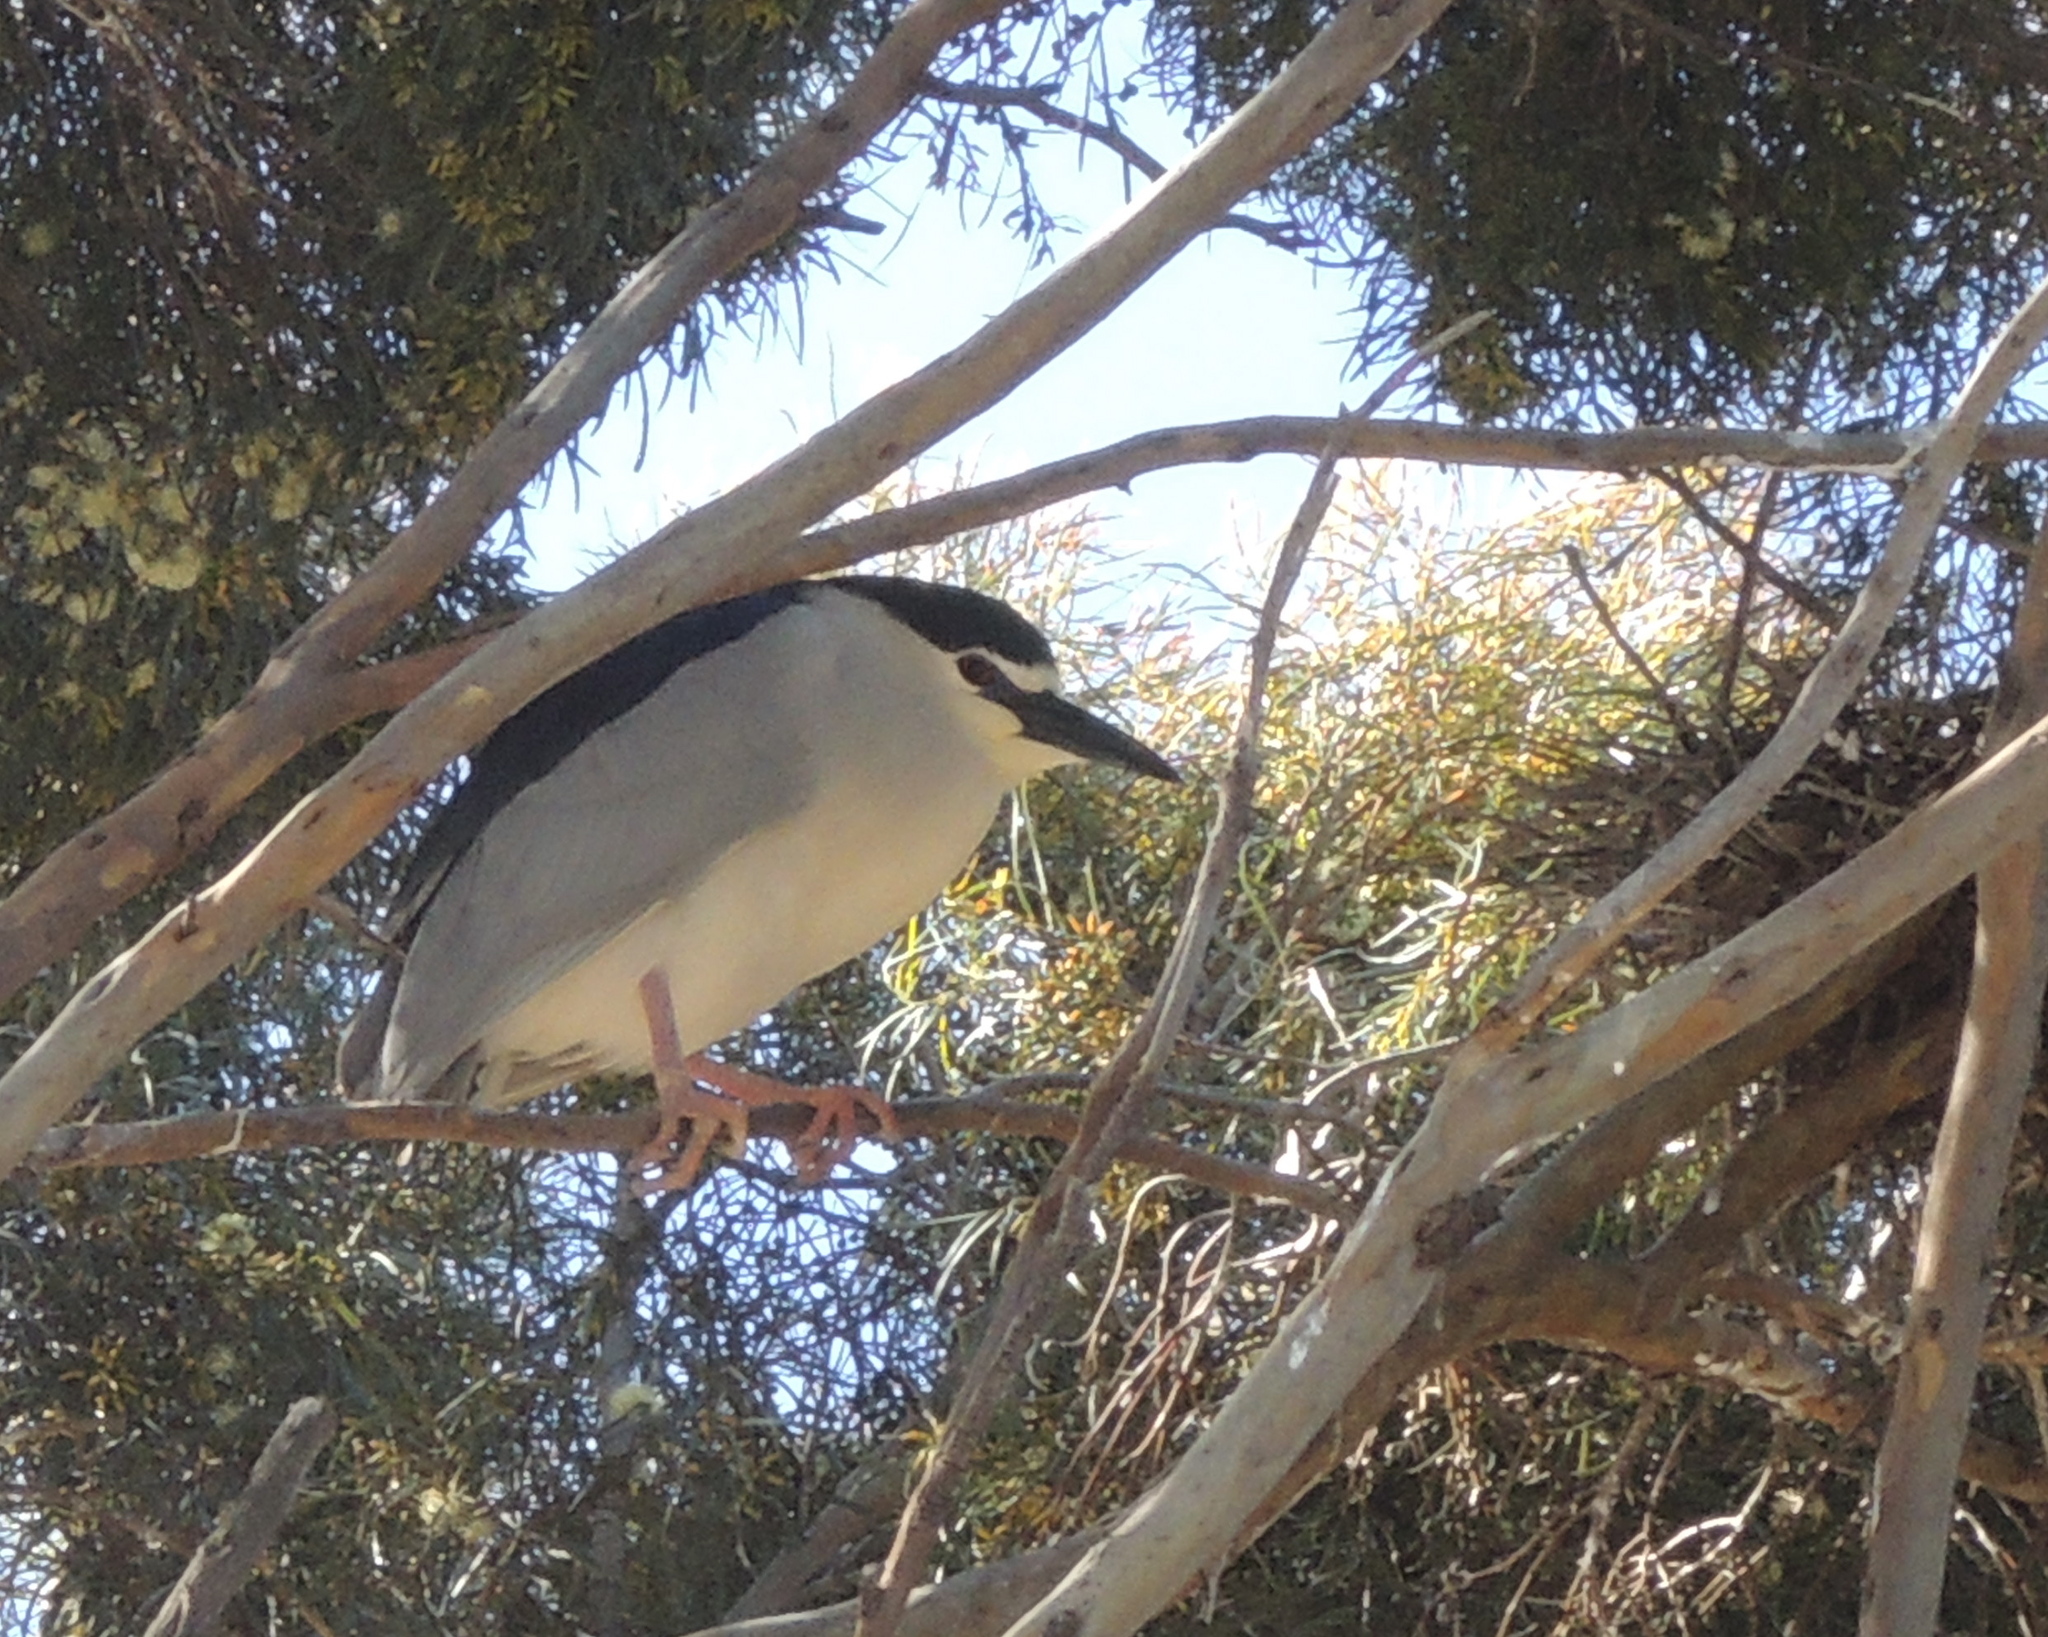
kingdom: Animalia
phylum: Chordata
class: Aves
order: Pelecaniformes
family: Ardeidae
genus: Nycticorax
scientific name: Nycticorax nycticorax
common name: Black-crowned night heron
